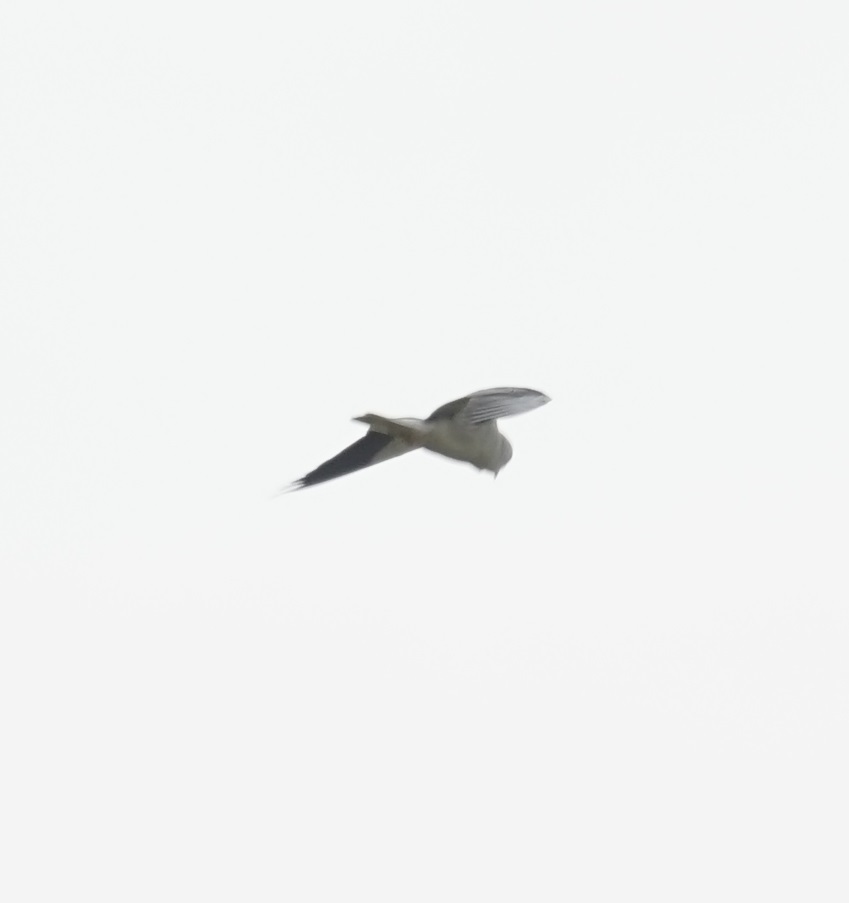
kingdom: Animalia
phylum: Chordata
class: Aves
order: Accipitriformes
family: Accipitridae
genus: Elanus
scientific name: Elanus caeruleus
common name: Black-winged kite
